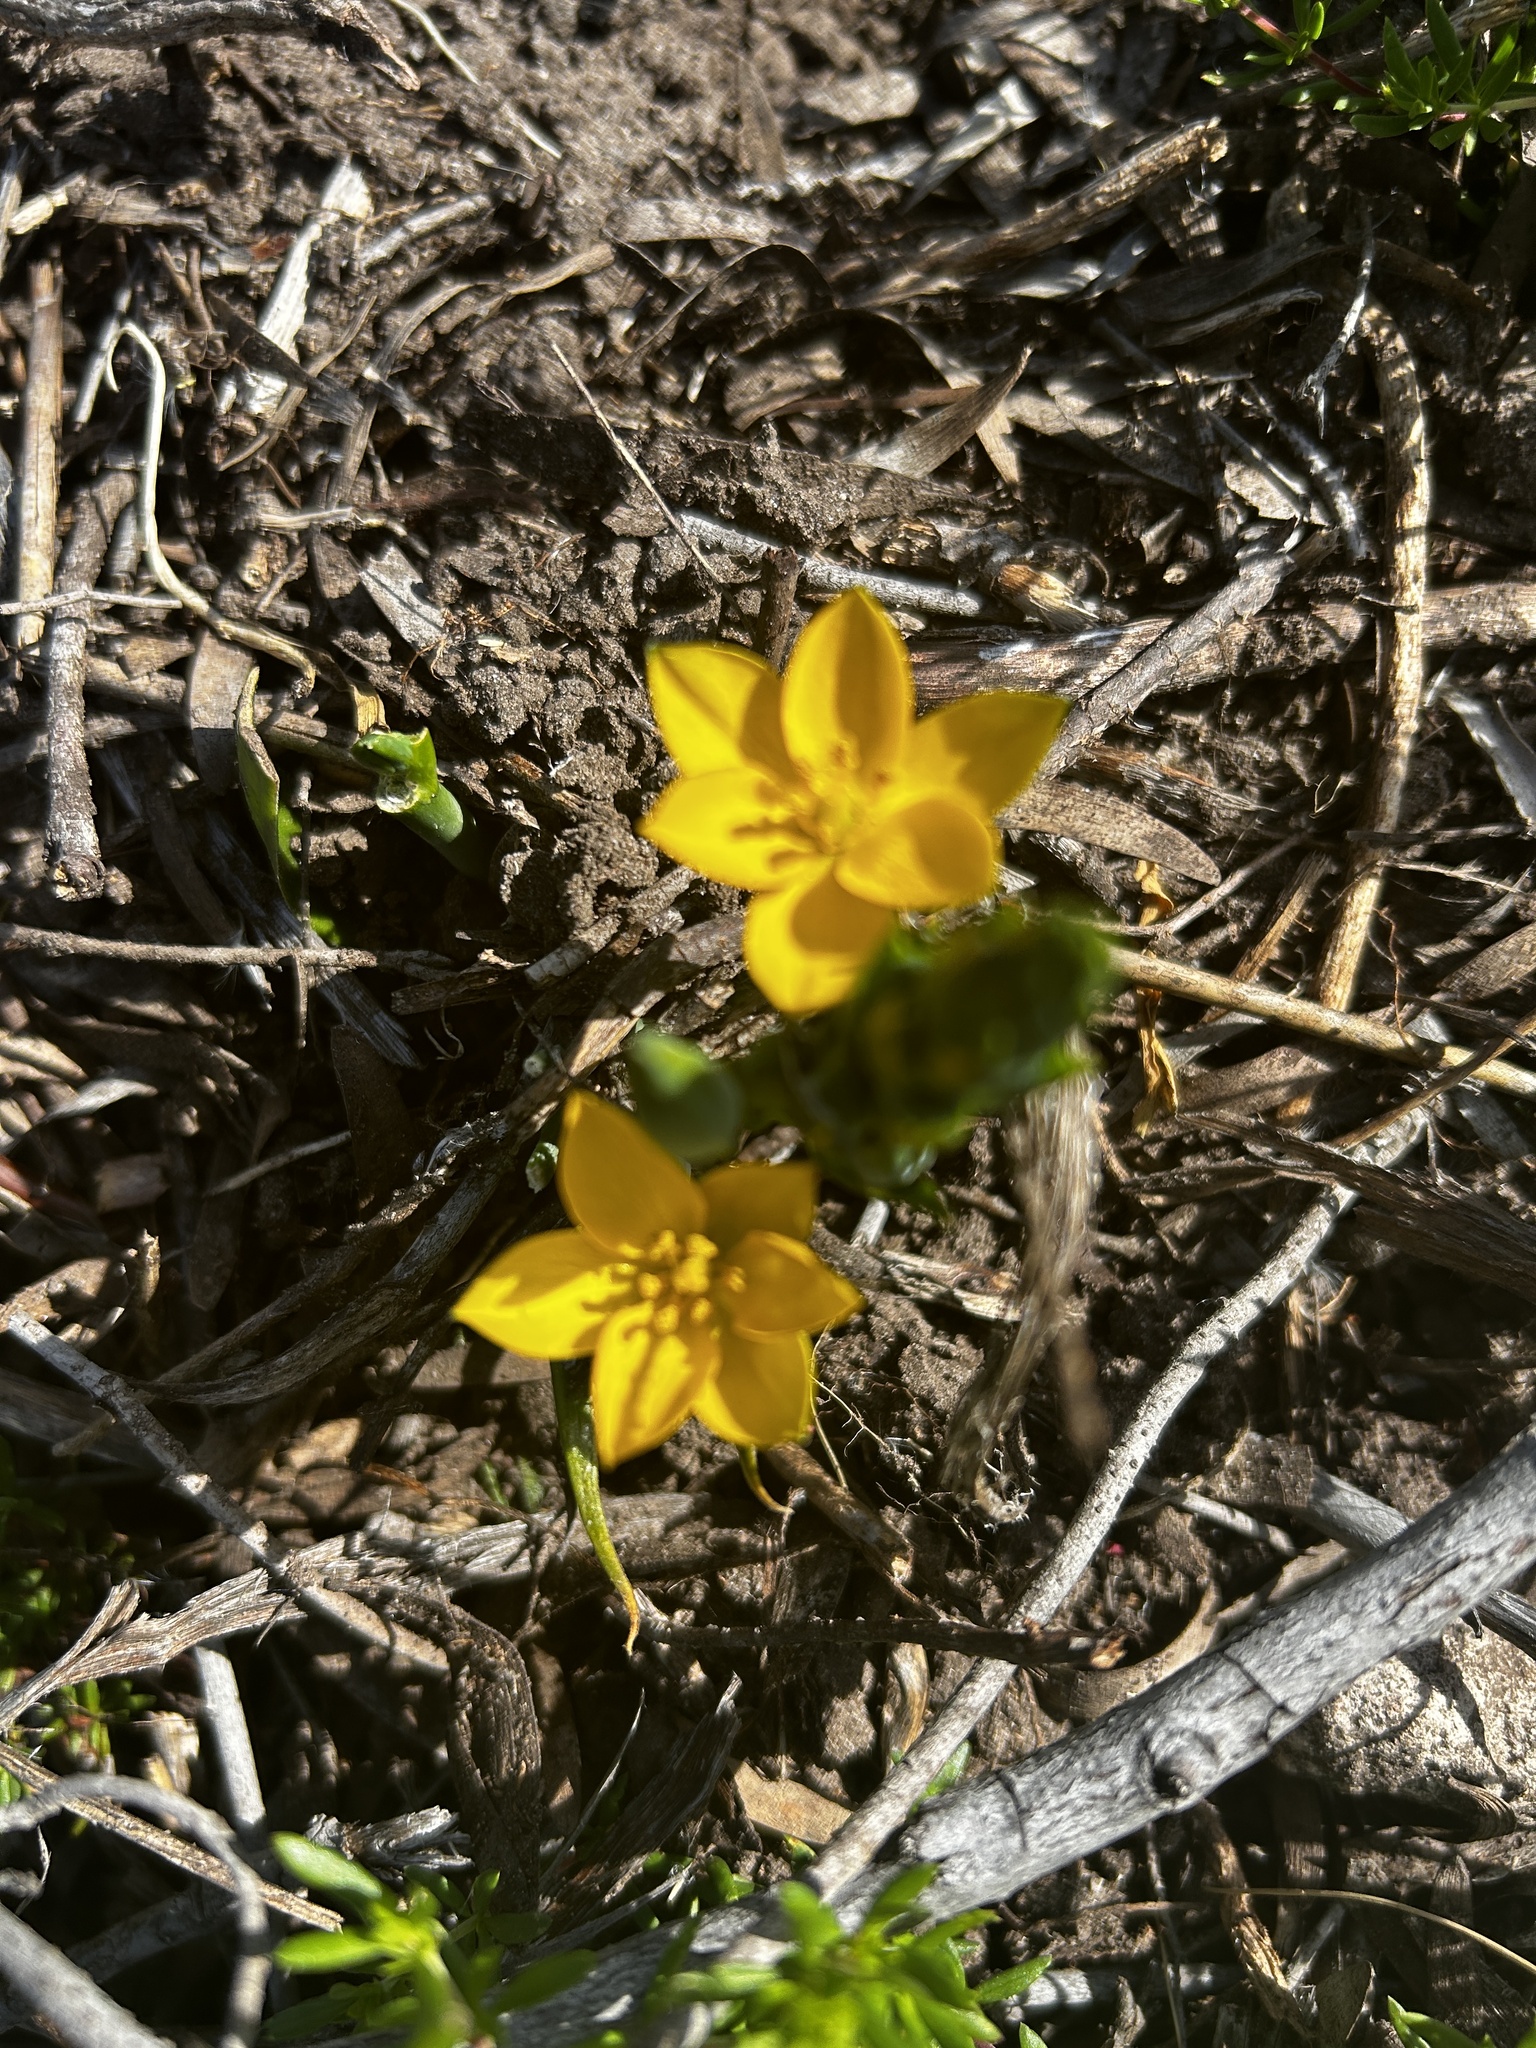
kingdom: Plantae
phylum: Tracheophyta
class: Liliopsida
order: Asparagales
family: Asparagaceae
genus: Ornithogalum
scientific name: Ornithogalum dubium
